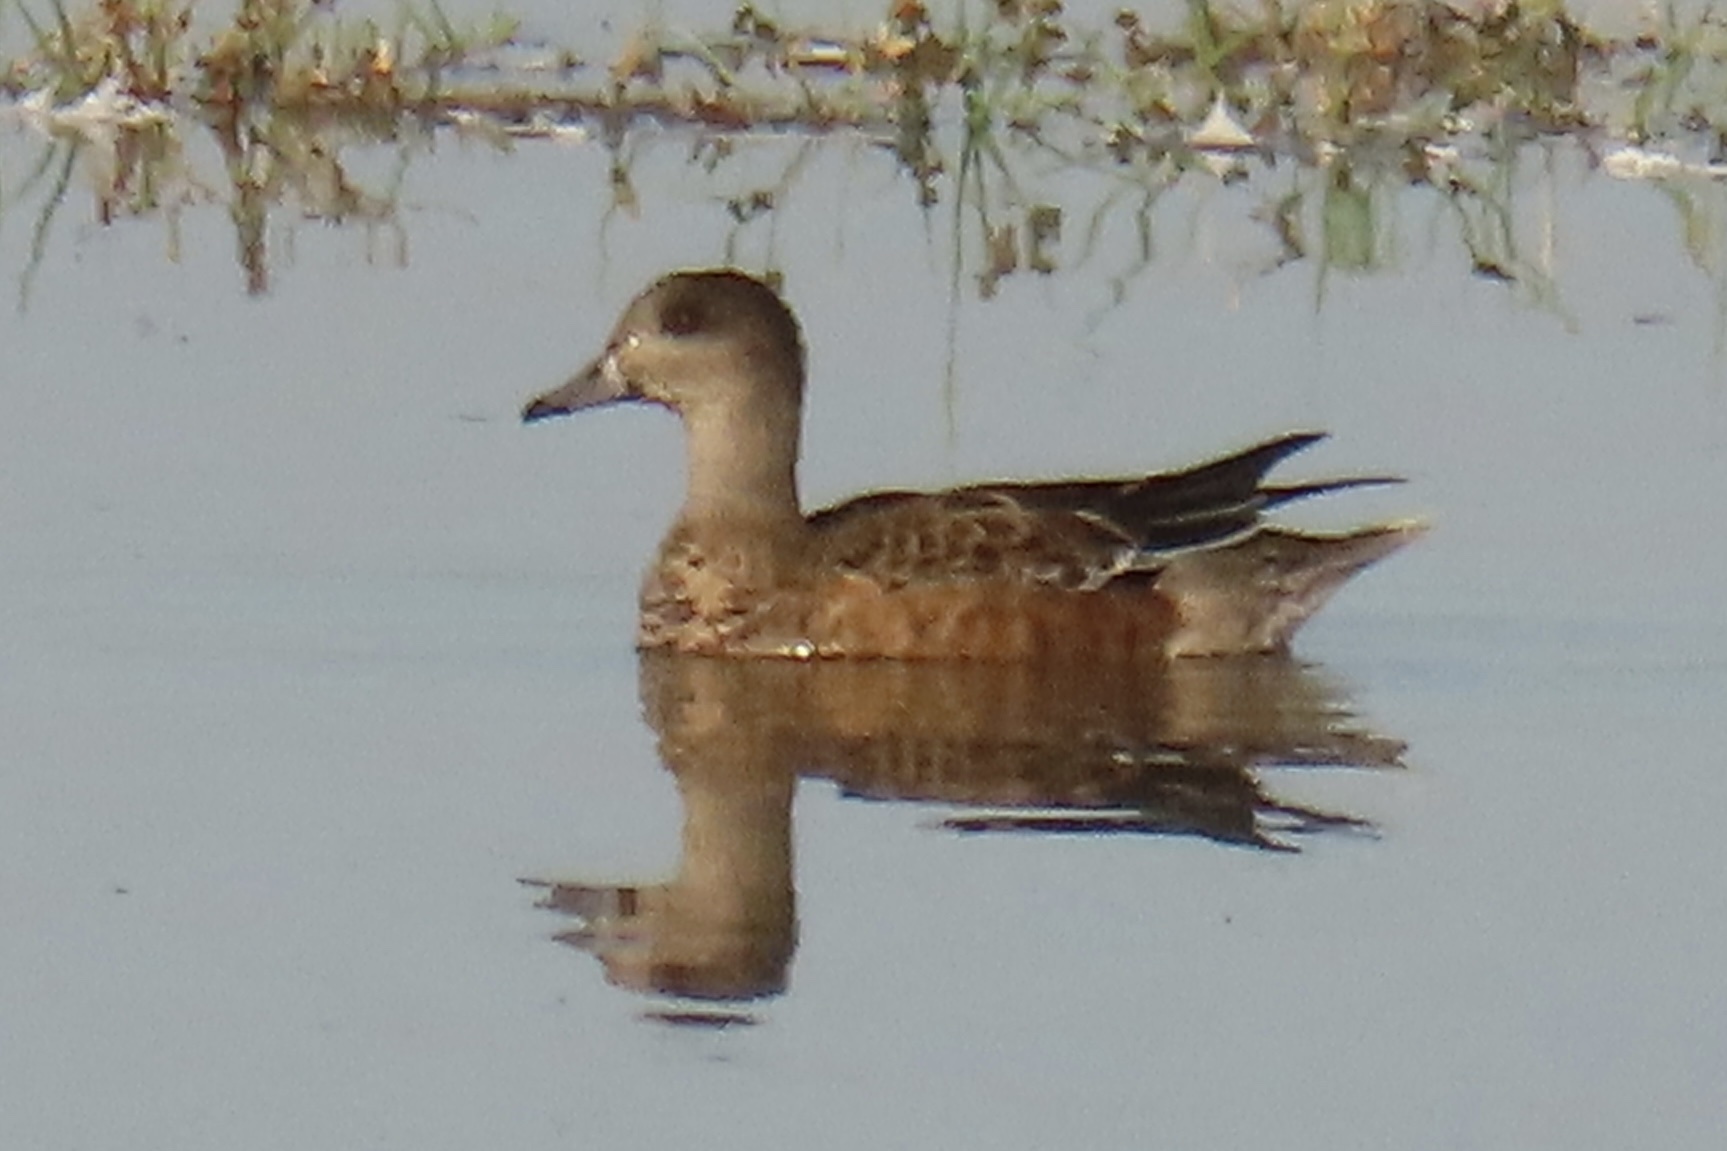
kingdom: Animalia
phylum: Chordata
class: Aves
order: Anseriformes
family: Anatidae
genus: Mareca
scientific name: Mareca americana
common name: American wigeon
